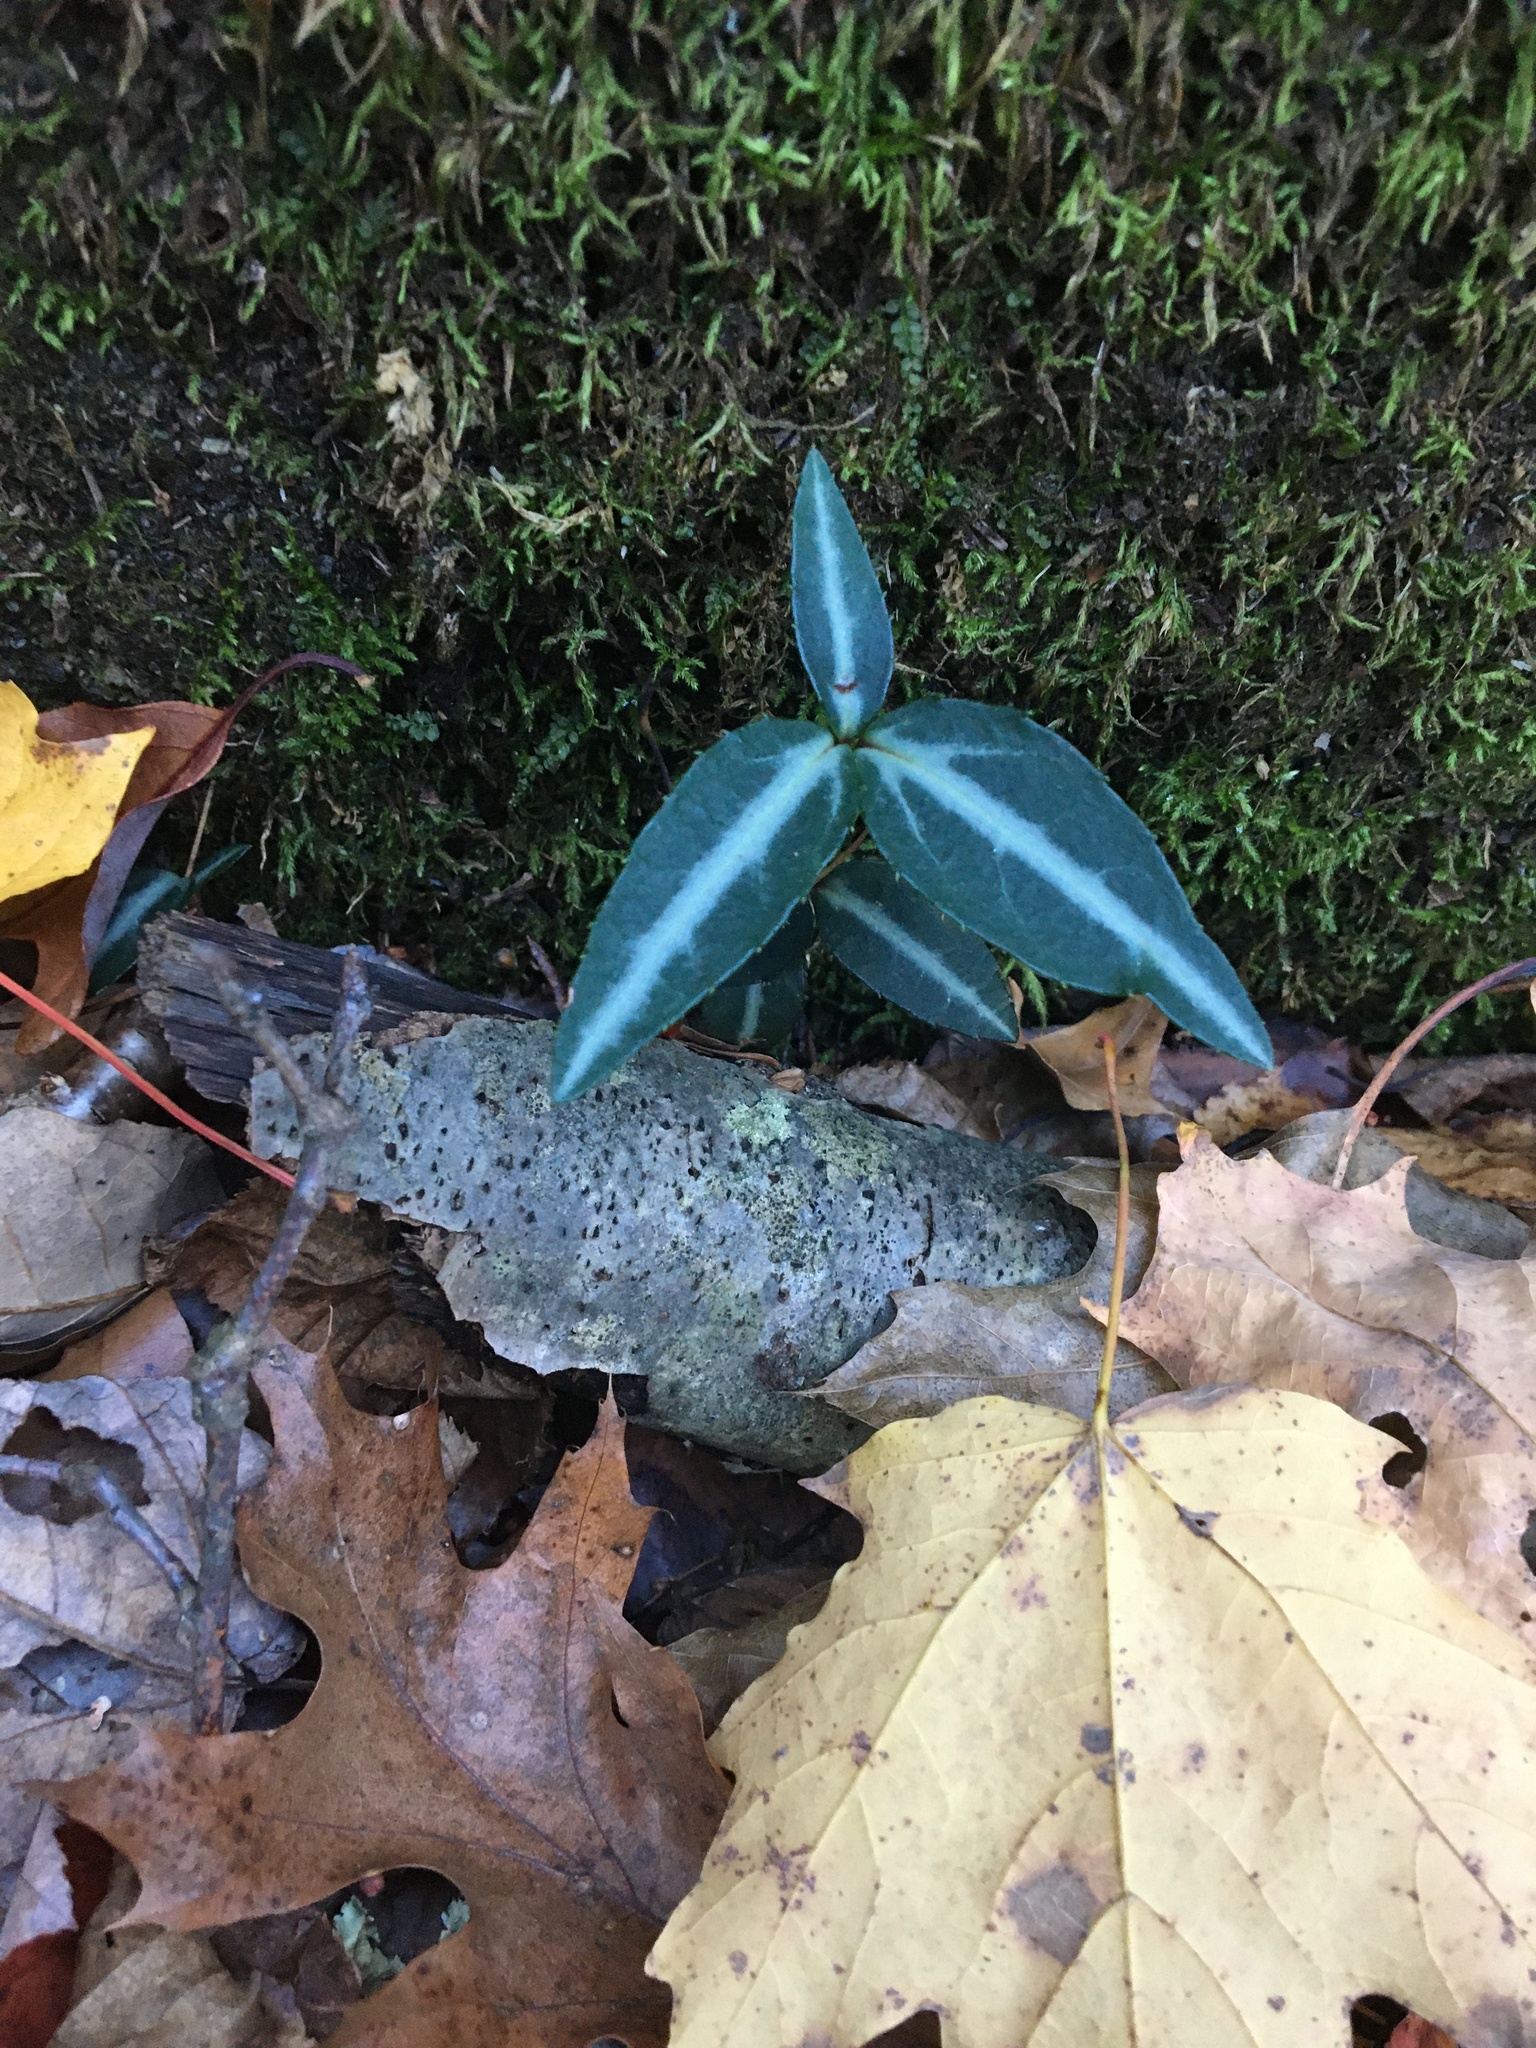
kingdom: Plantae
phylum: Tracheophyta
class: Magnoliopsida
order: Ericales
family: Ericaceae
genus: Chimaphila
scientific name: Chimaphila maculata
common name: Spotted pipsissewa
